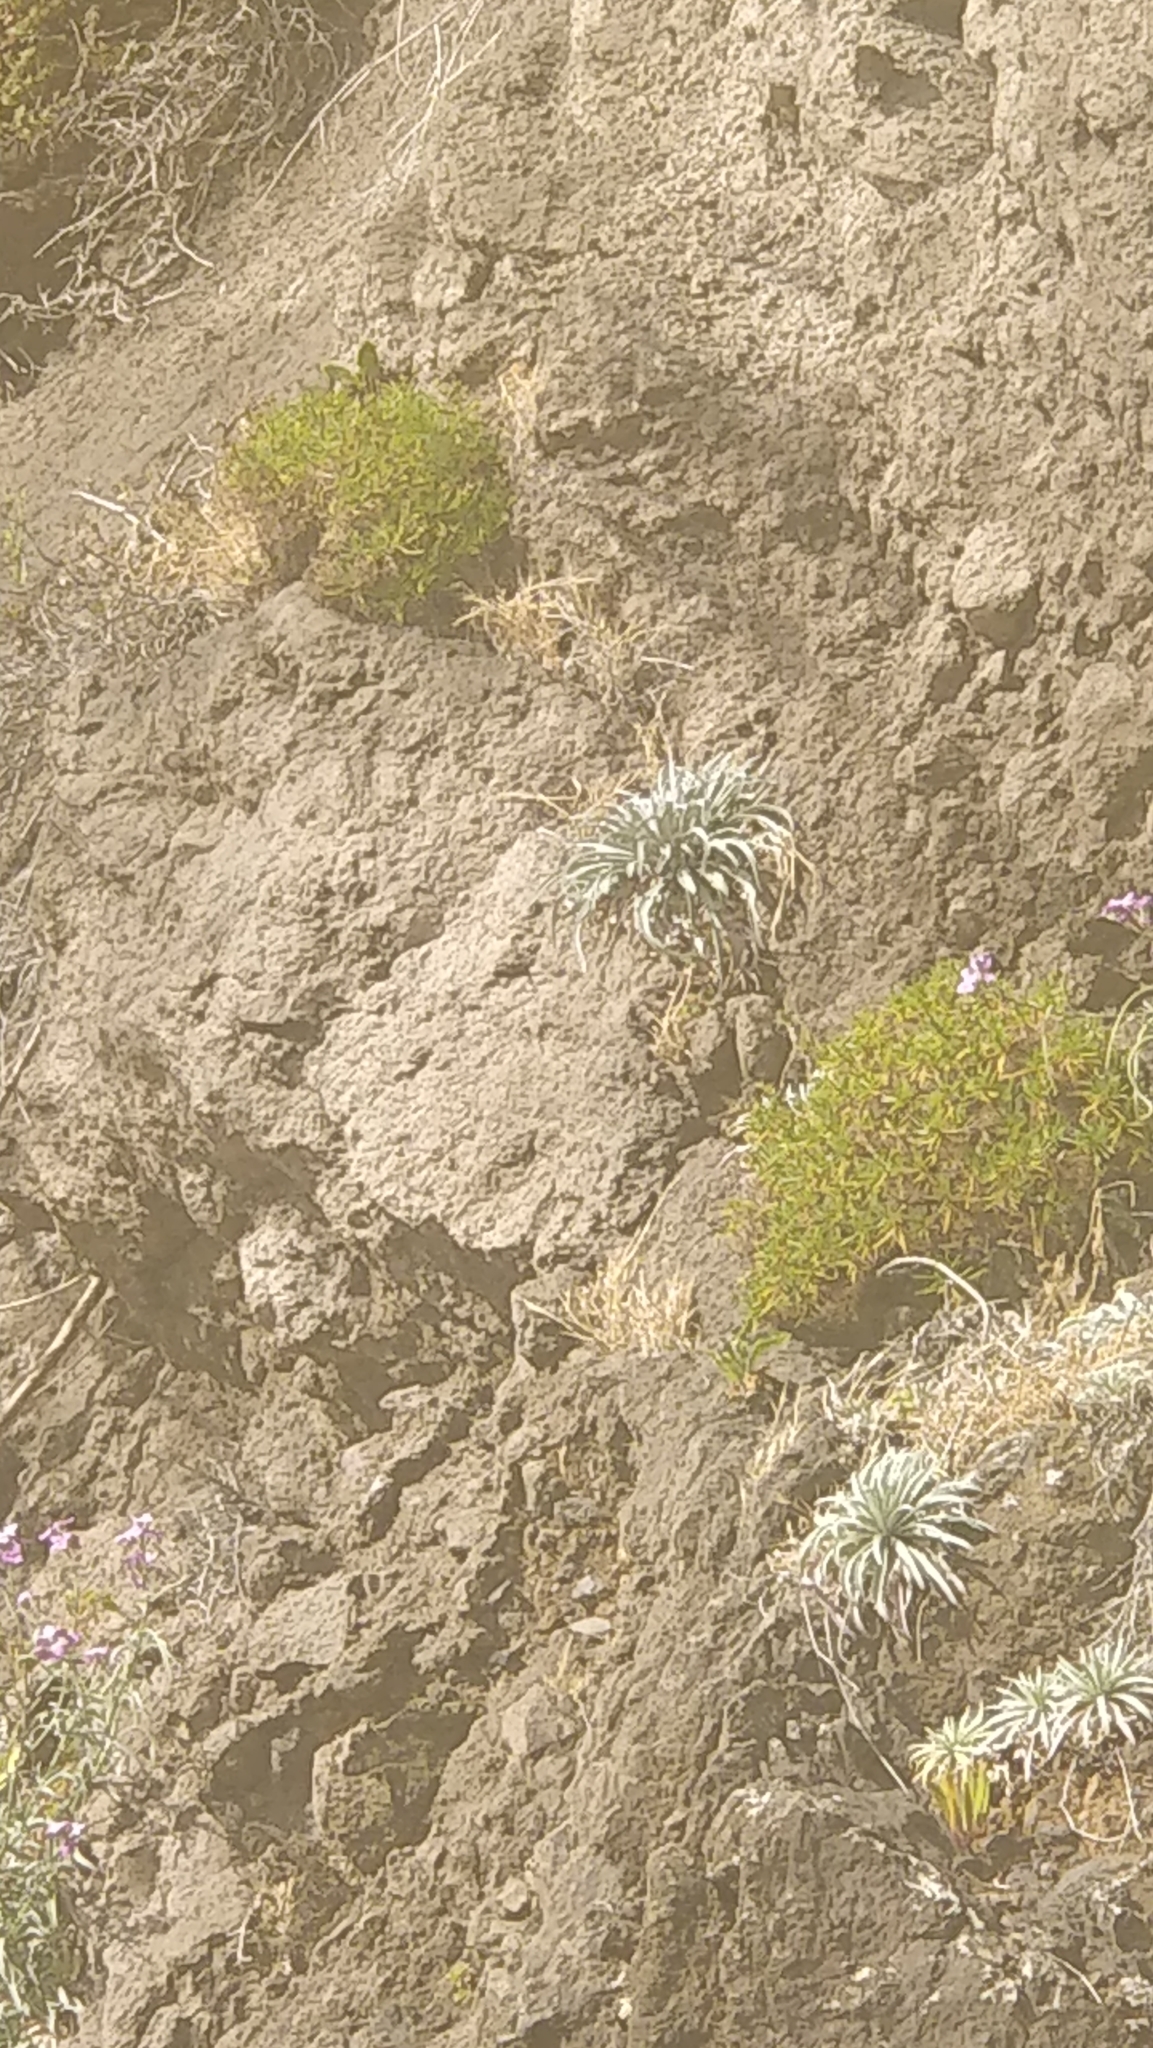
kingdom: Plantae
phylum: Tracheophyta
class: Magnoliopsida
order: Lamiales
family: Plantaginaceae
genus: Plantago
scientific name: Plantago arborescens
